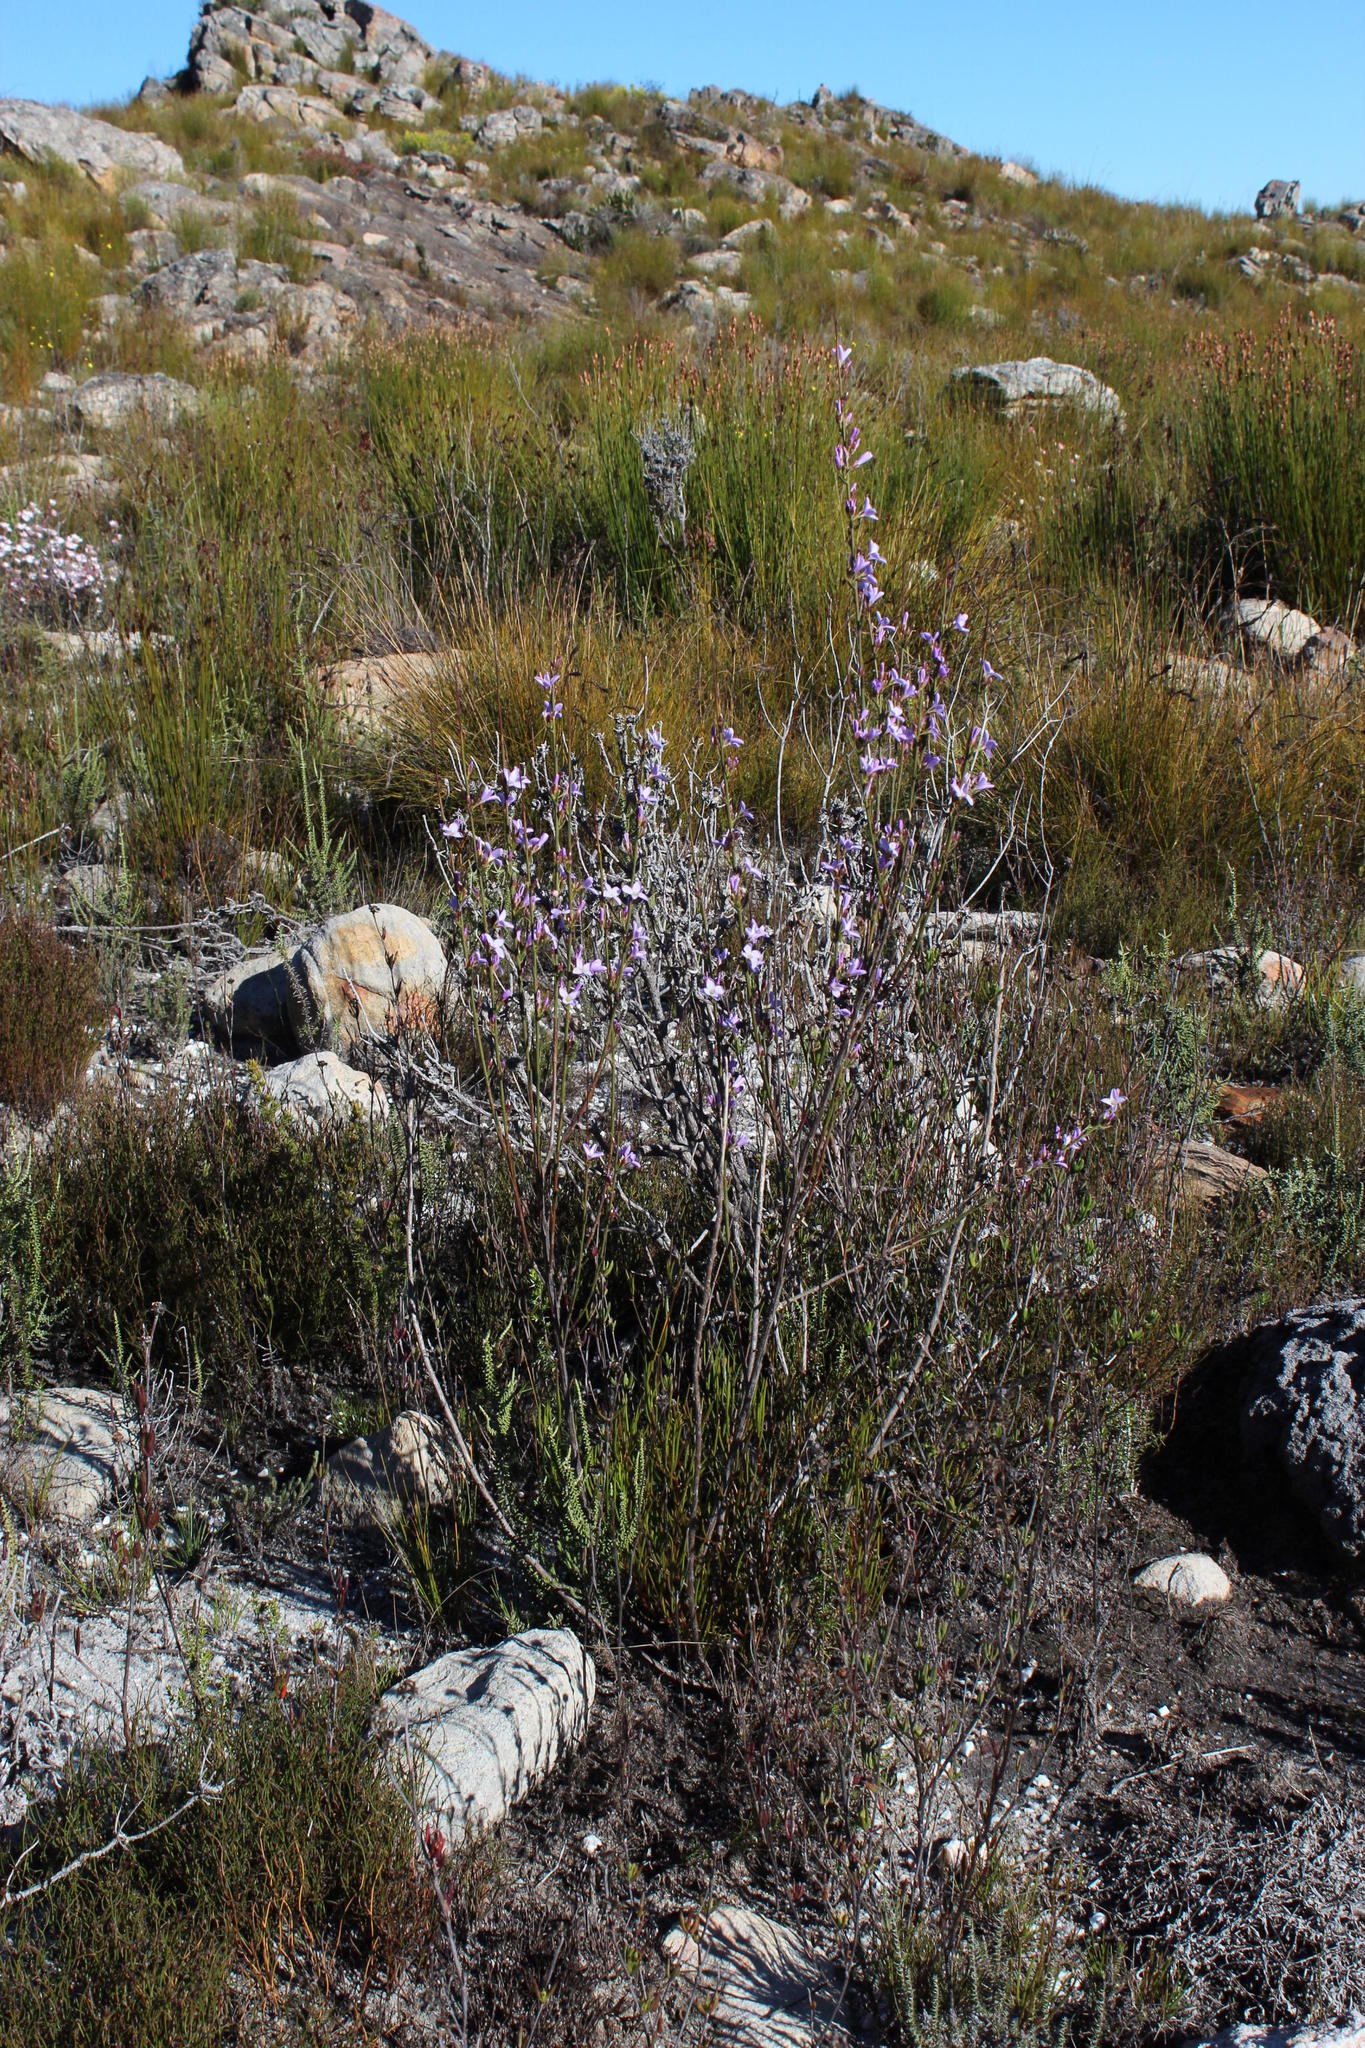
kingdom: Plantae
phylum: Tracheophyta
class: Magnoliopsida
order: Brassicales
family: Brassicaceae
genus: Heliophila
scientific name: Heliophila scoparia
